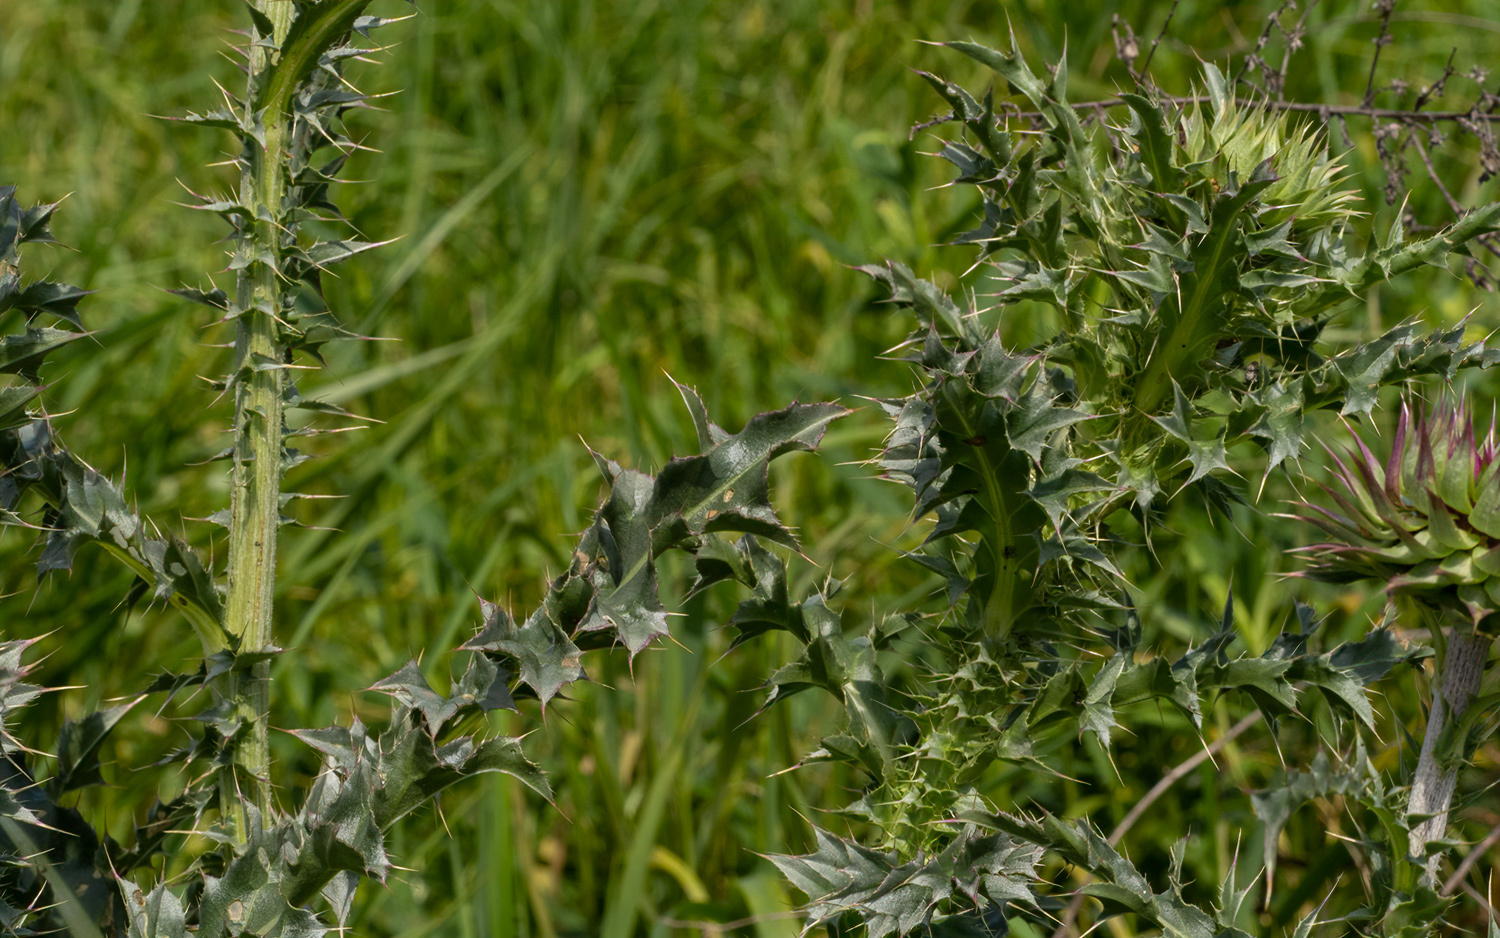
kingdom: Plantae
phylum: Tracheophyta
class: Magnoliopsida
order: Asterales
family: Asteraceae
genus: Carduus
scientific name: Carduus nutans
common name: Musk thistle
